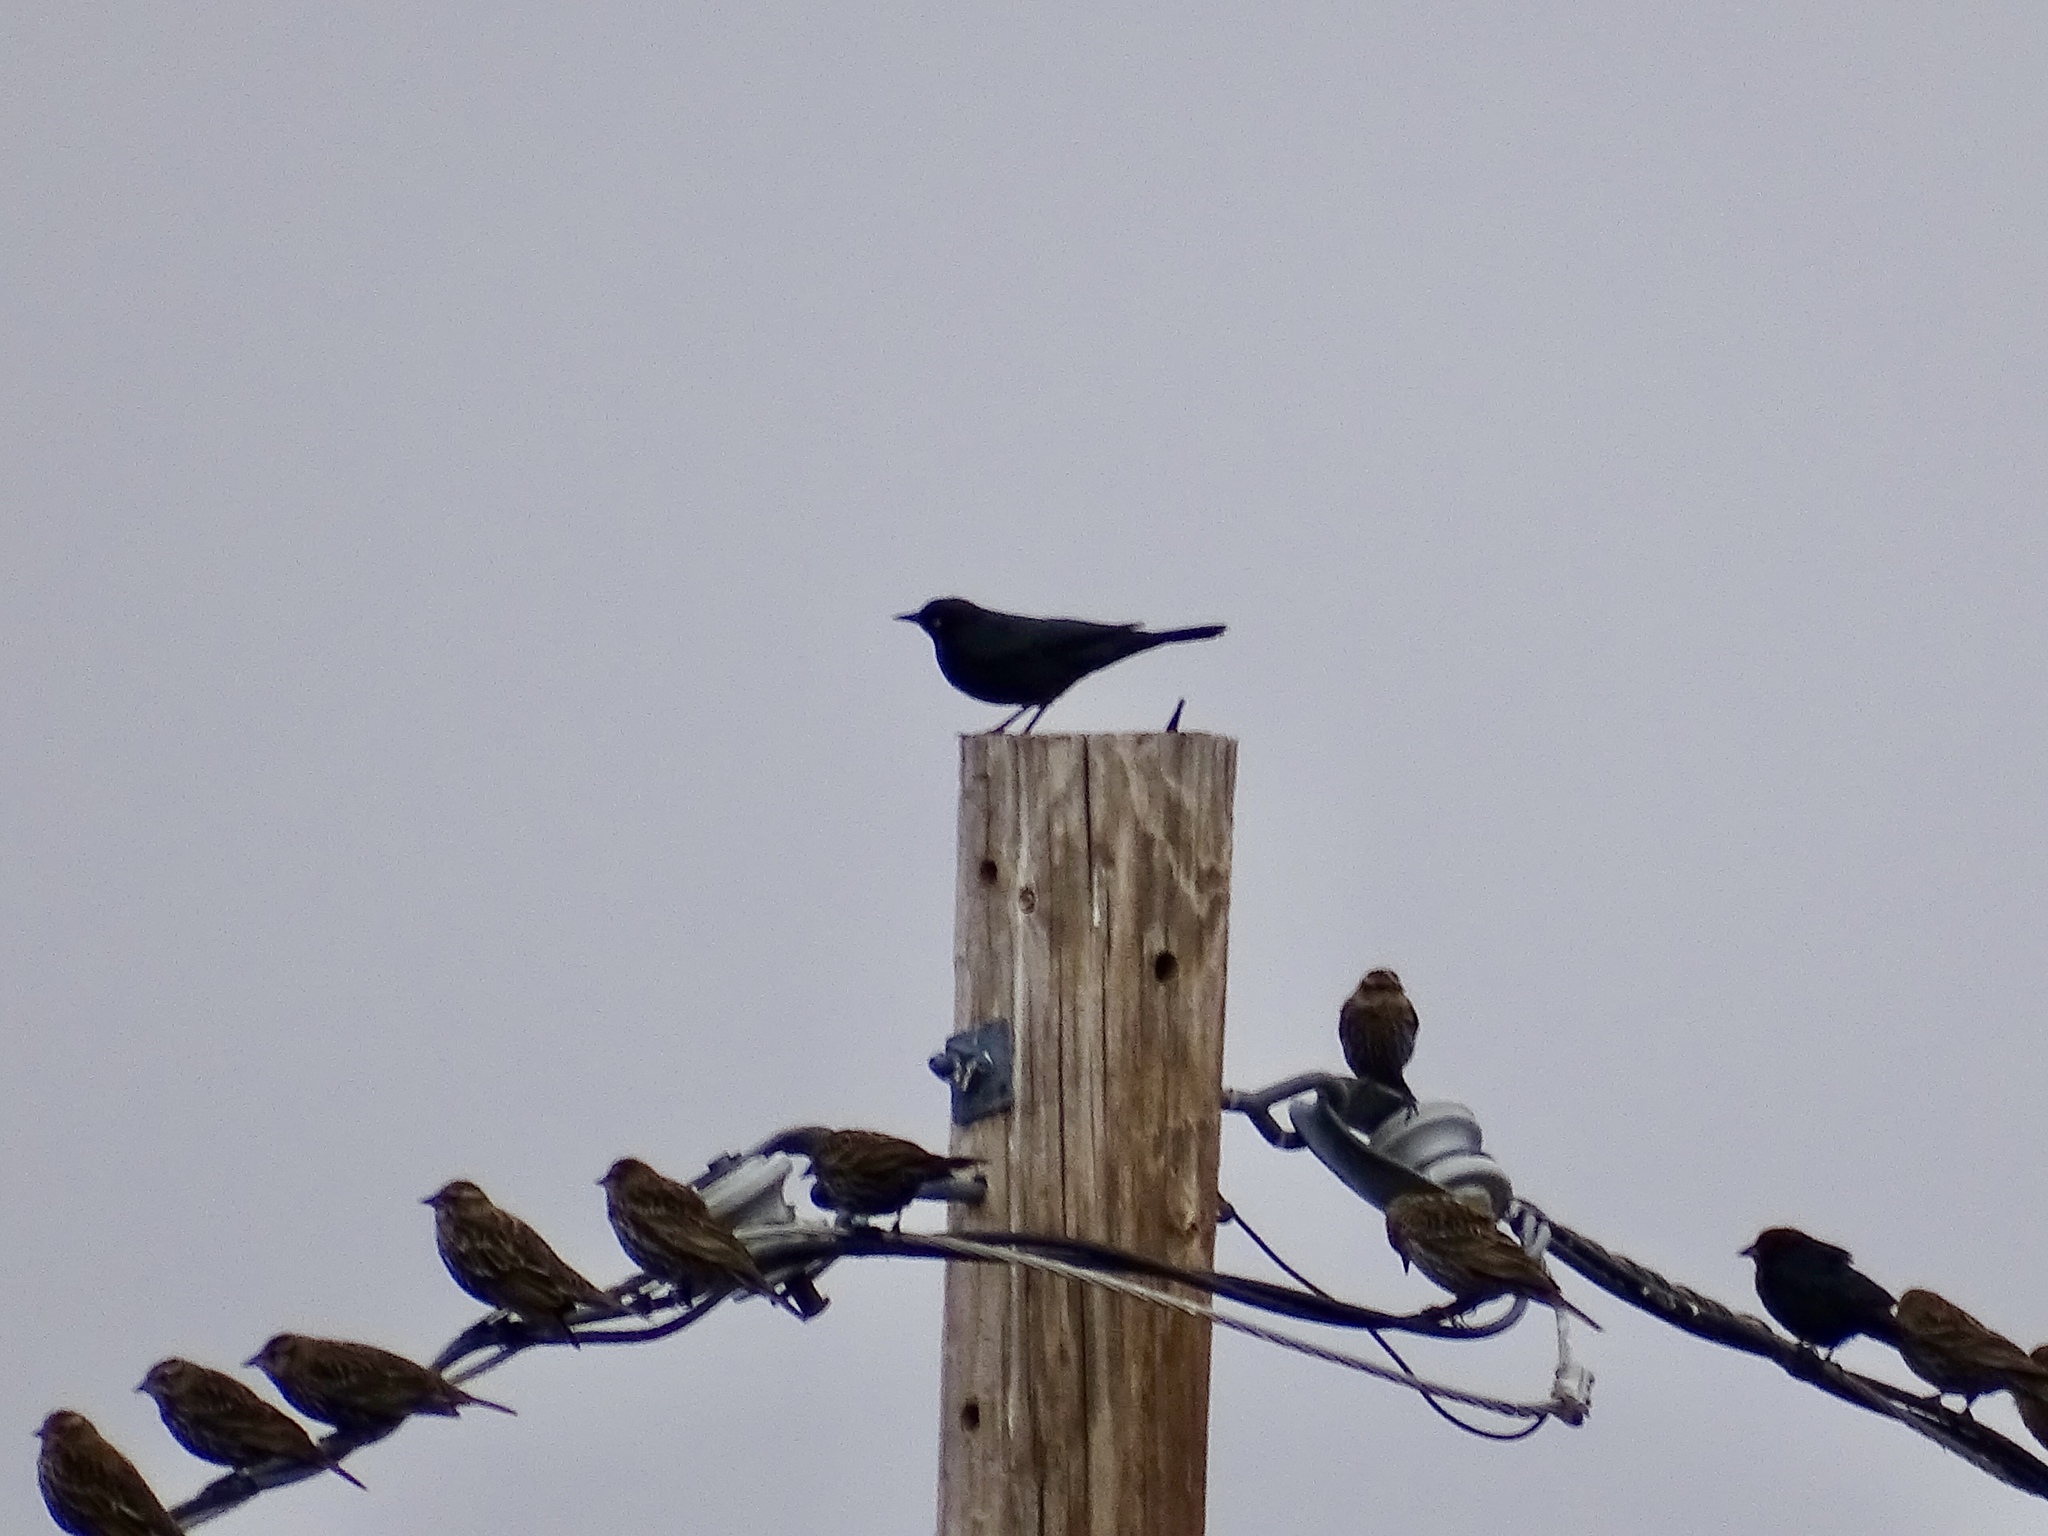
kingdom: Animalia
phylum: Chordata
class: Aves
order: Passeriformes
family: Icteridae
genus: Euphagus
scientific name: Euphagus cyanocephalus
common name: Brewer's blackbird
